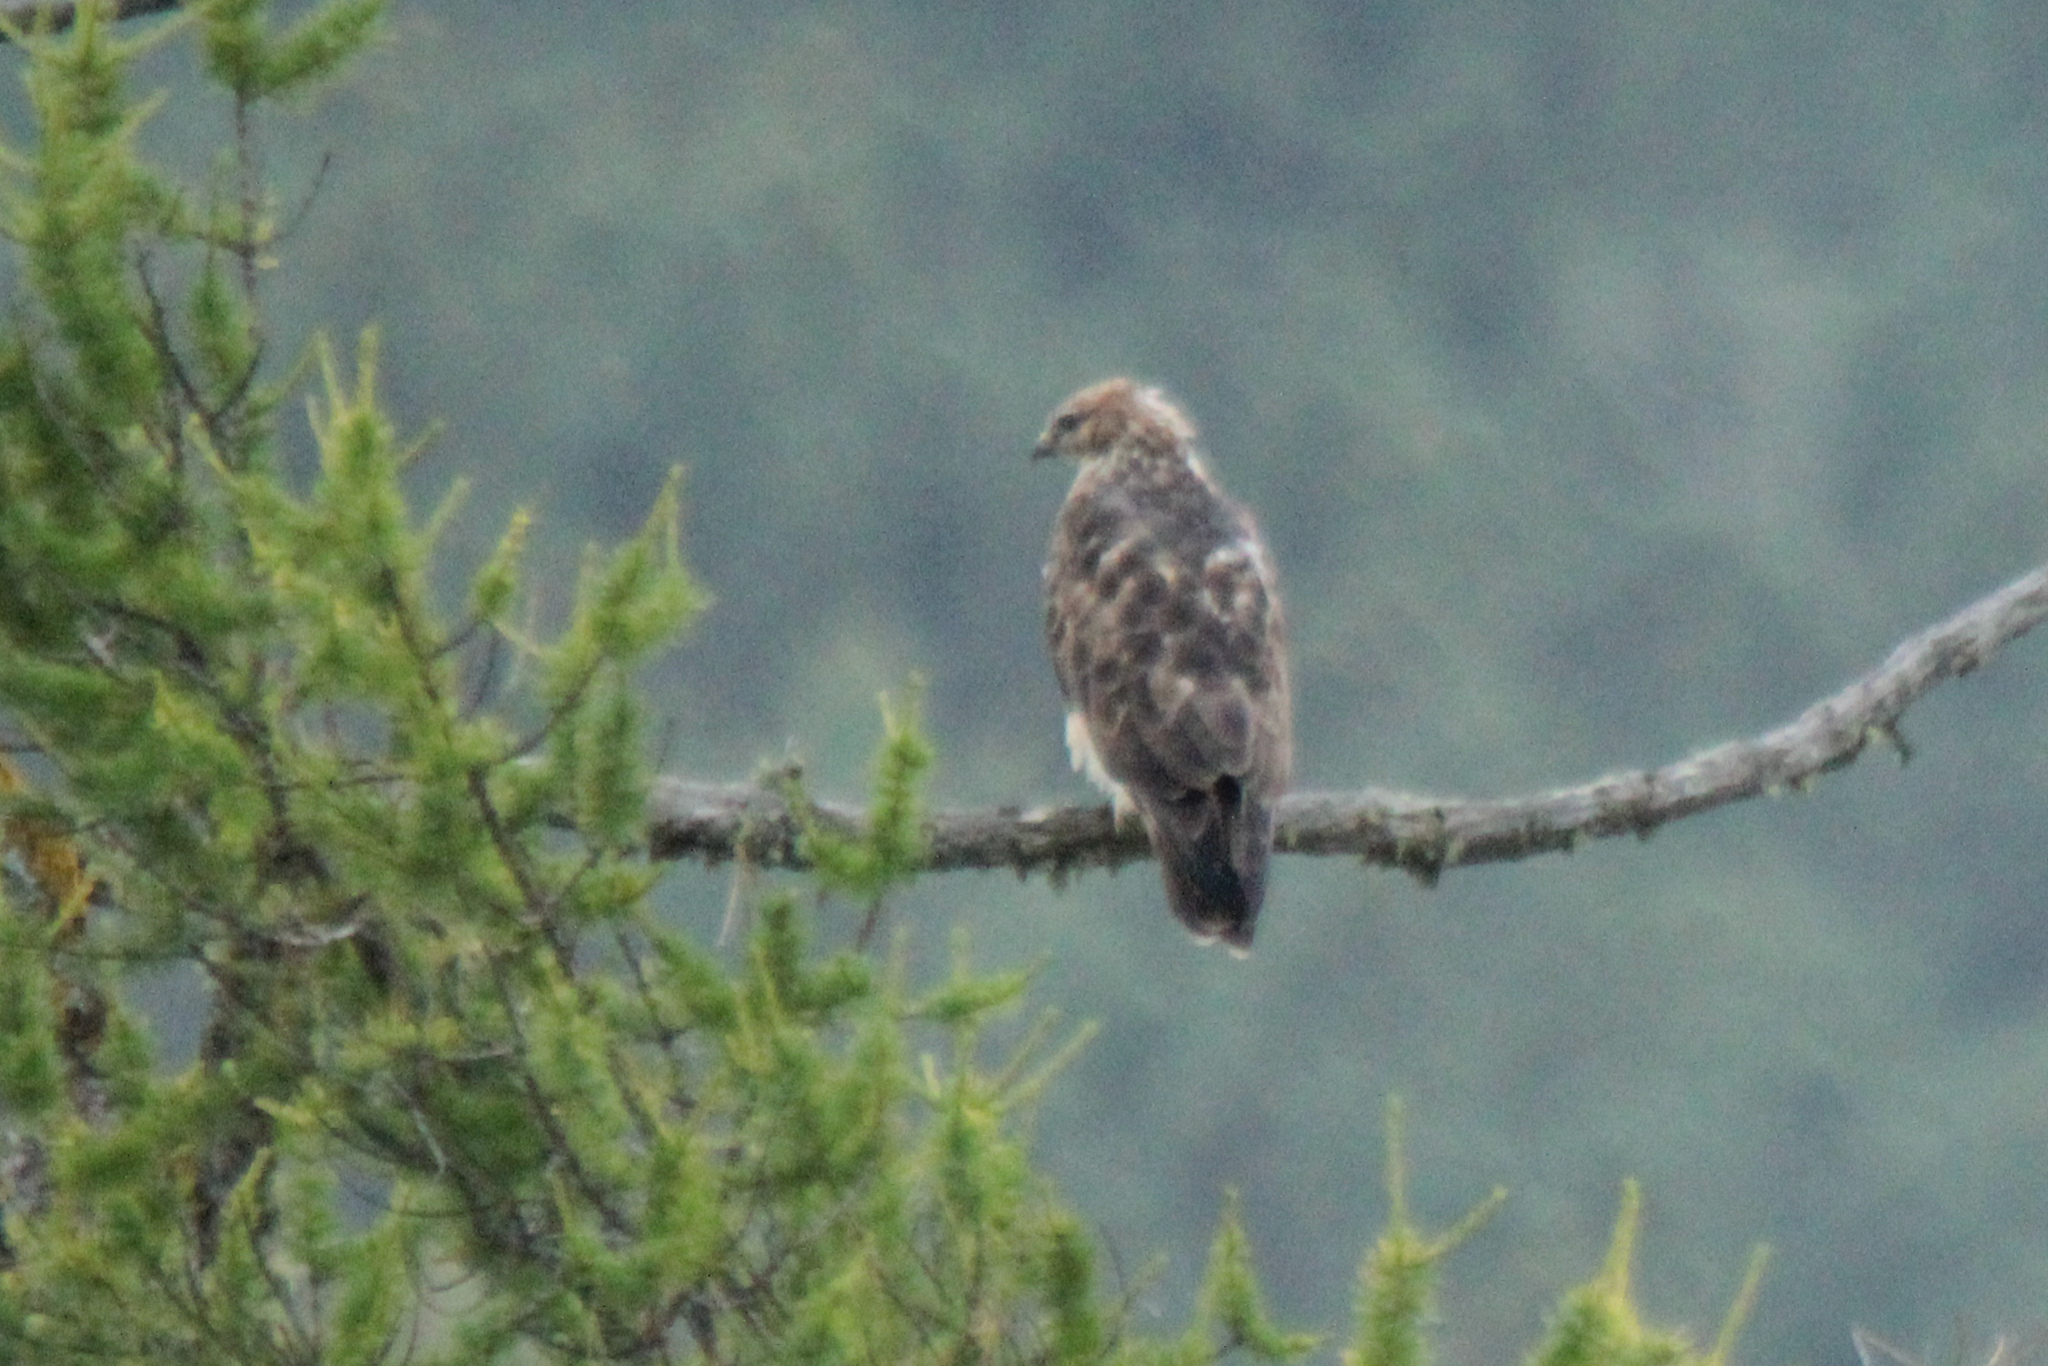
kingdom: Animalia
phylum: Chordata
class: Aves
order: Accipitriformes
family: Accipitridae
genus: Buteo
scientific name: Buteo japonicus
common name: Eastern buzzard
